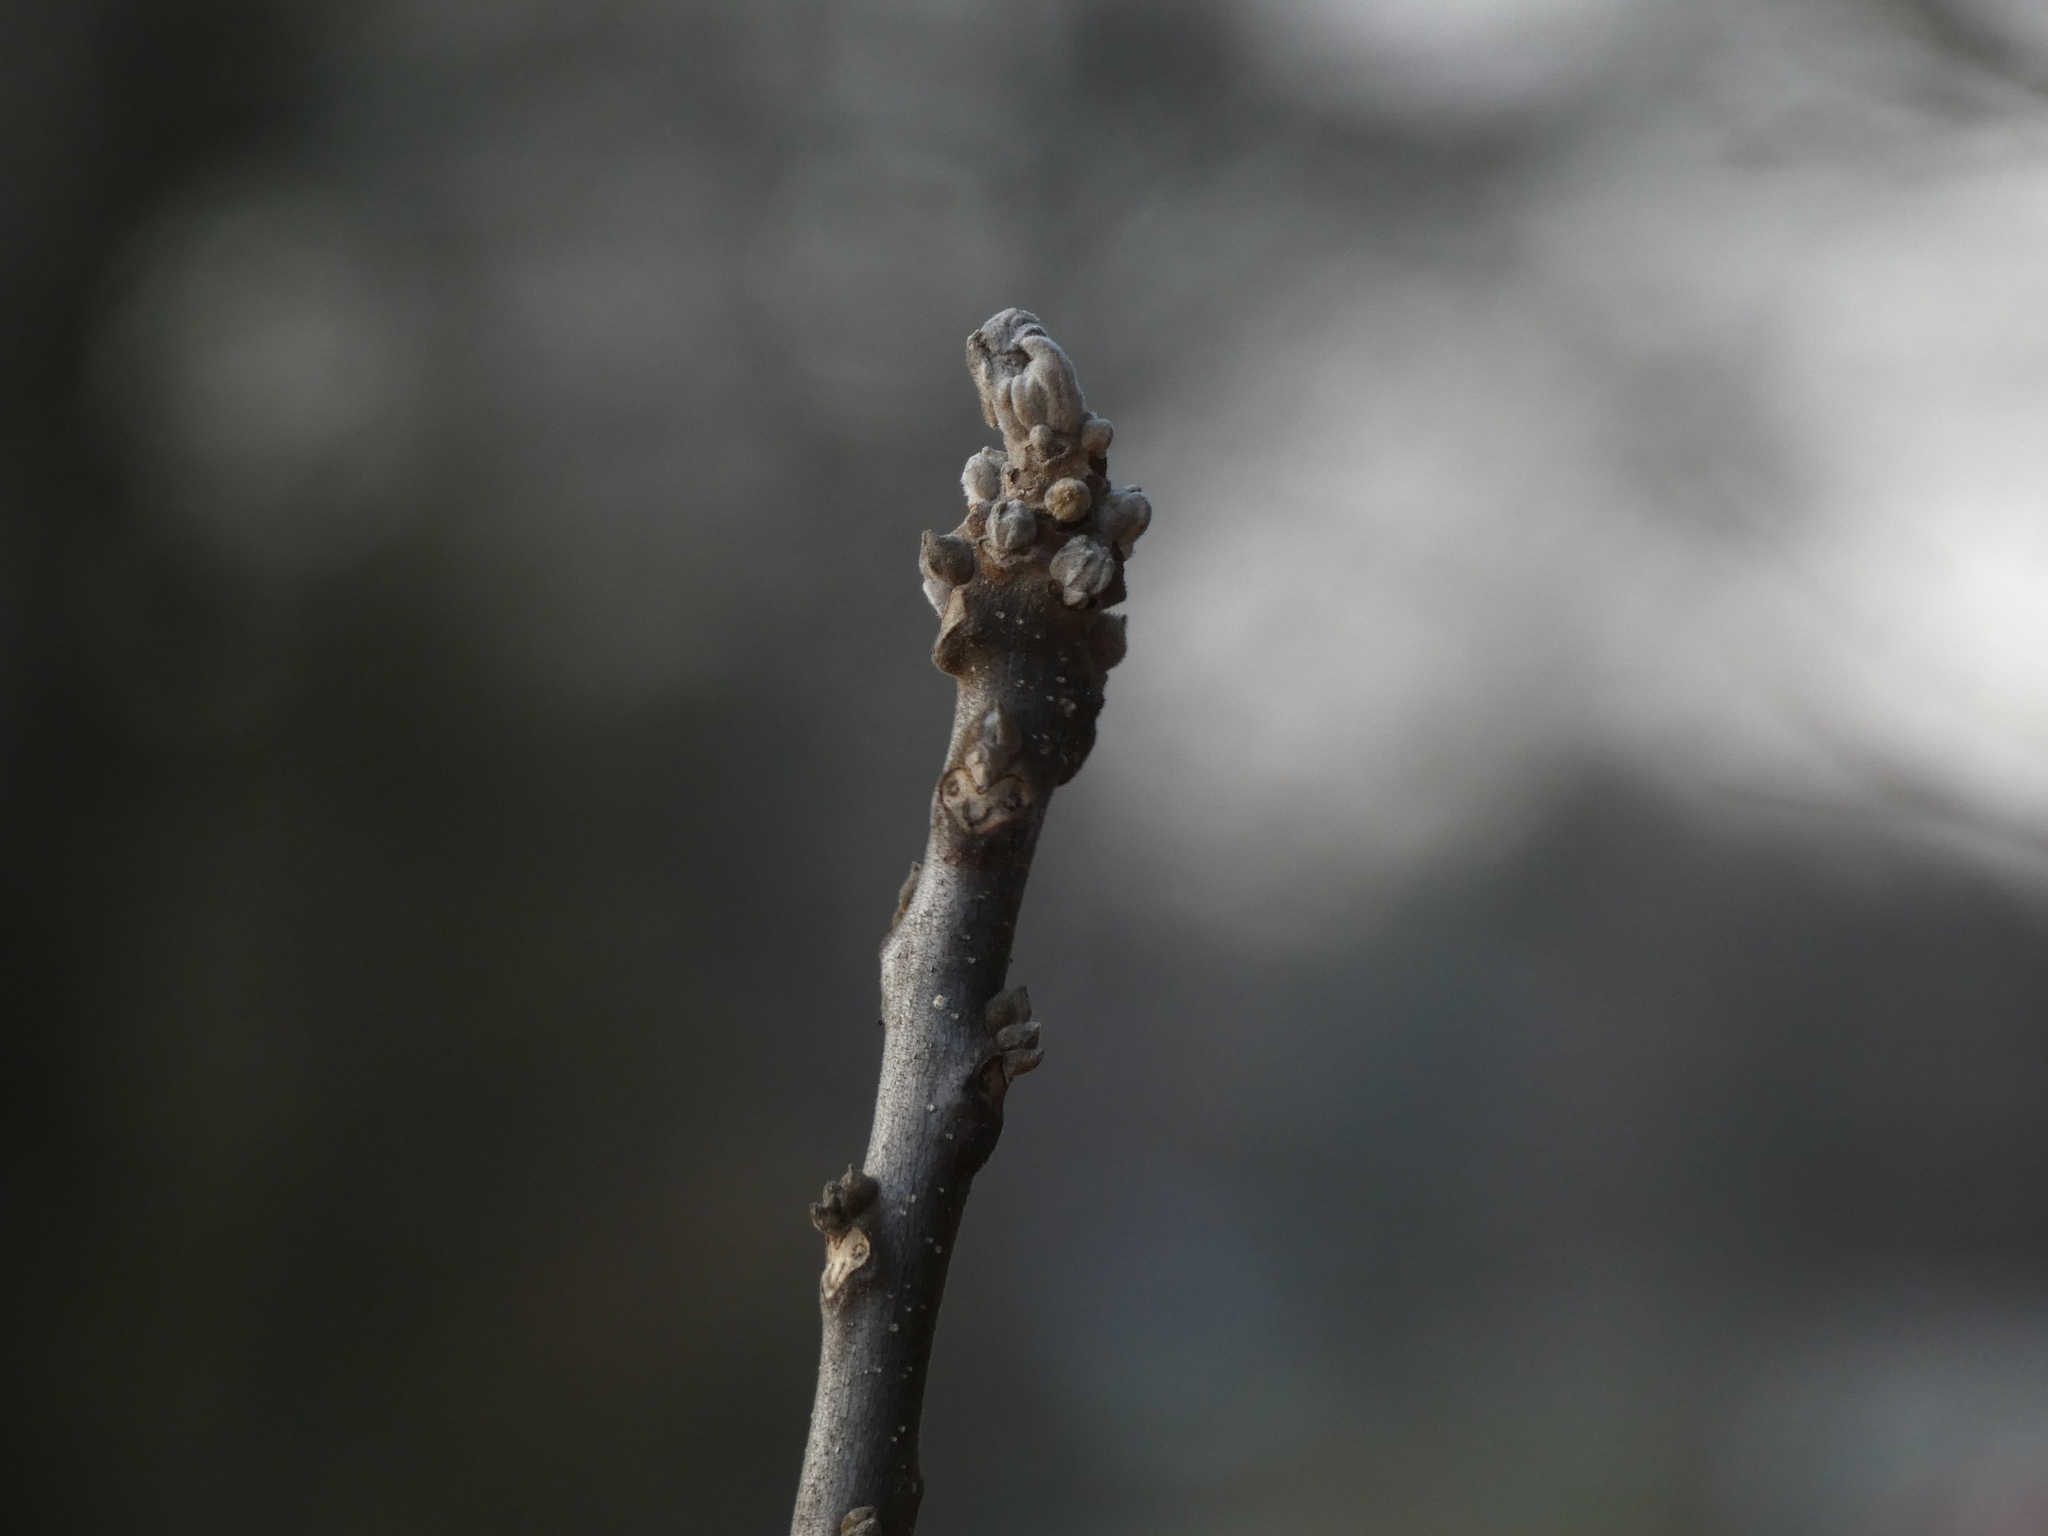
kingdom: Plantae
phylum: Tracheophyta
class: Magnoliopsida
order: Fagales
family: Juglandaceae
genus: Juglans
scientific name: Juglans nigra
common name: Black walnut
